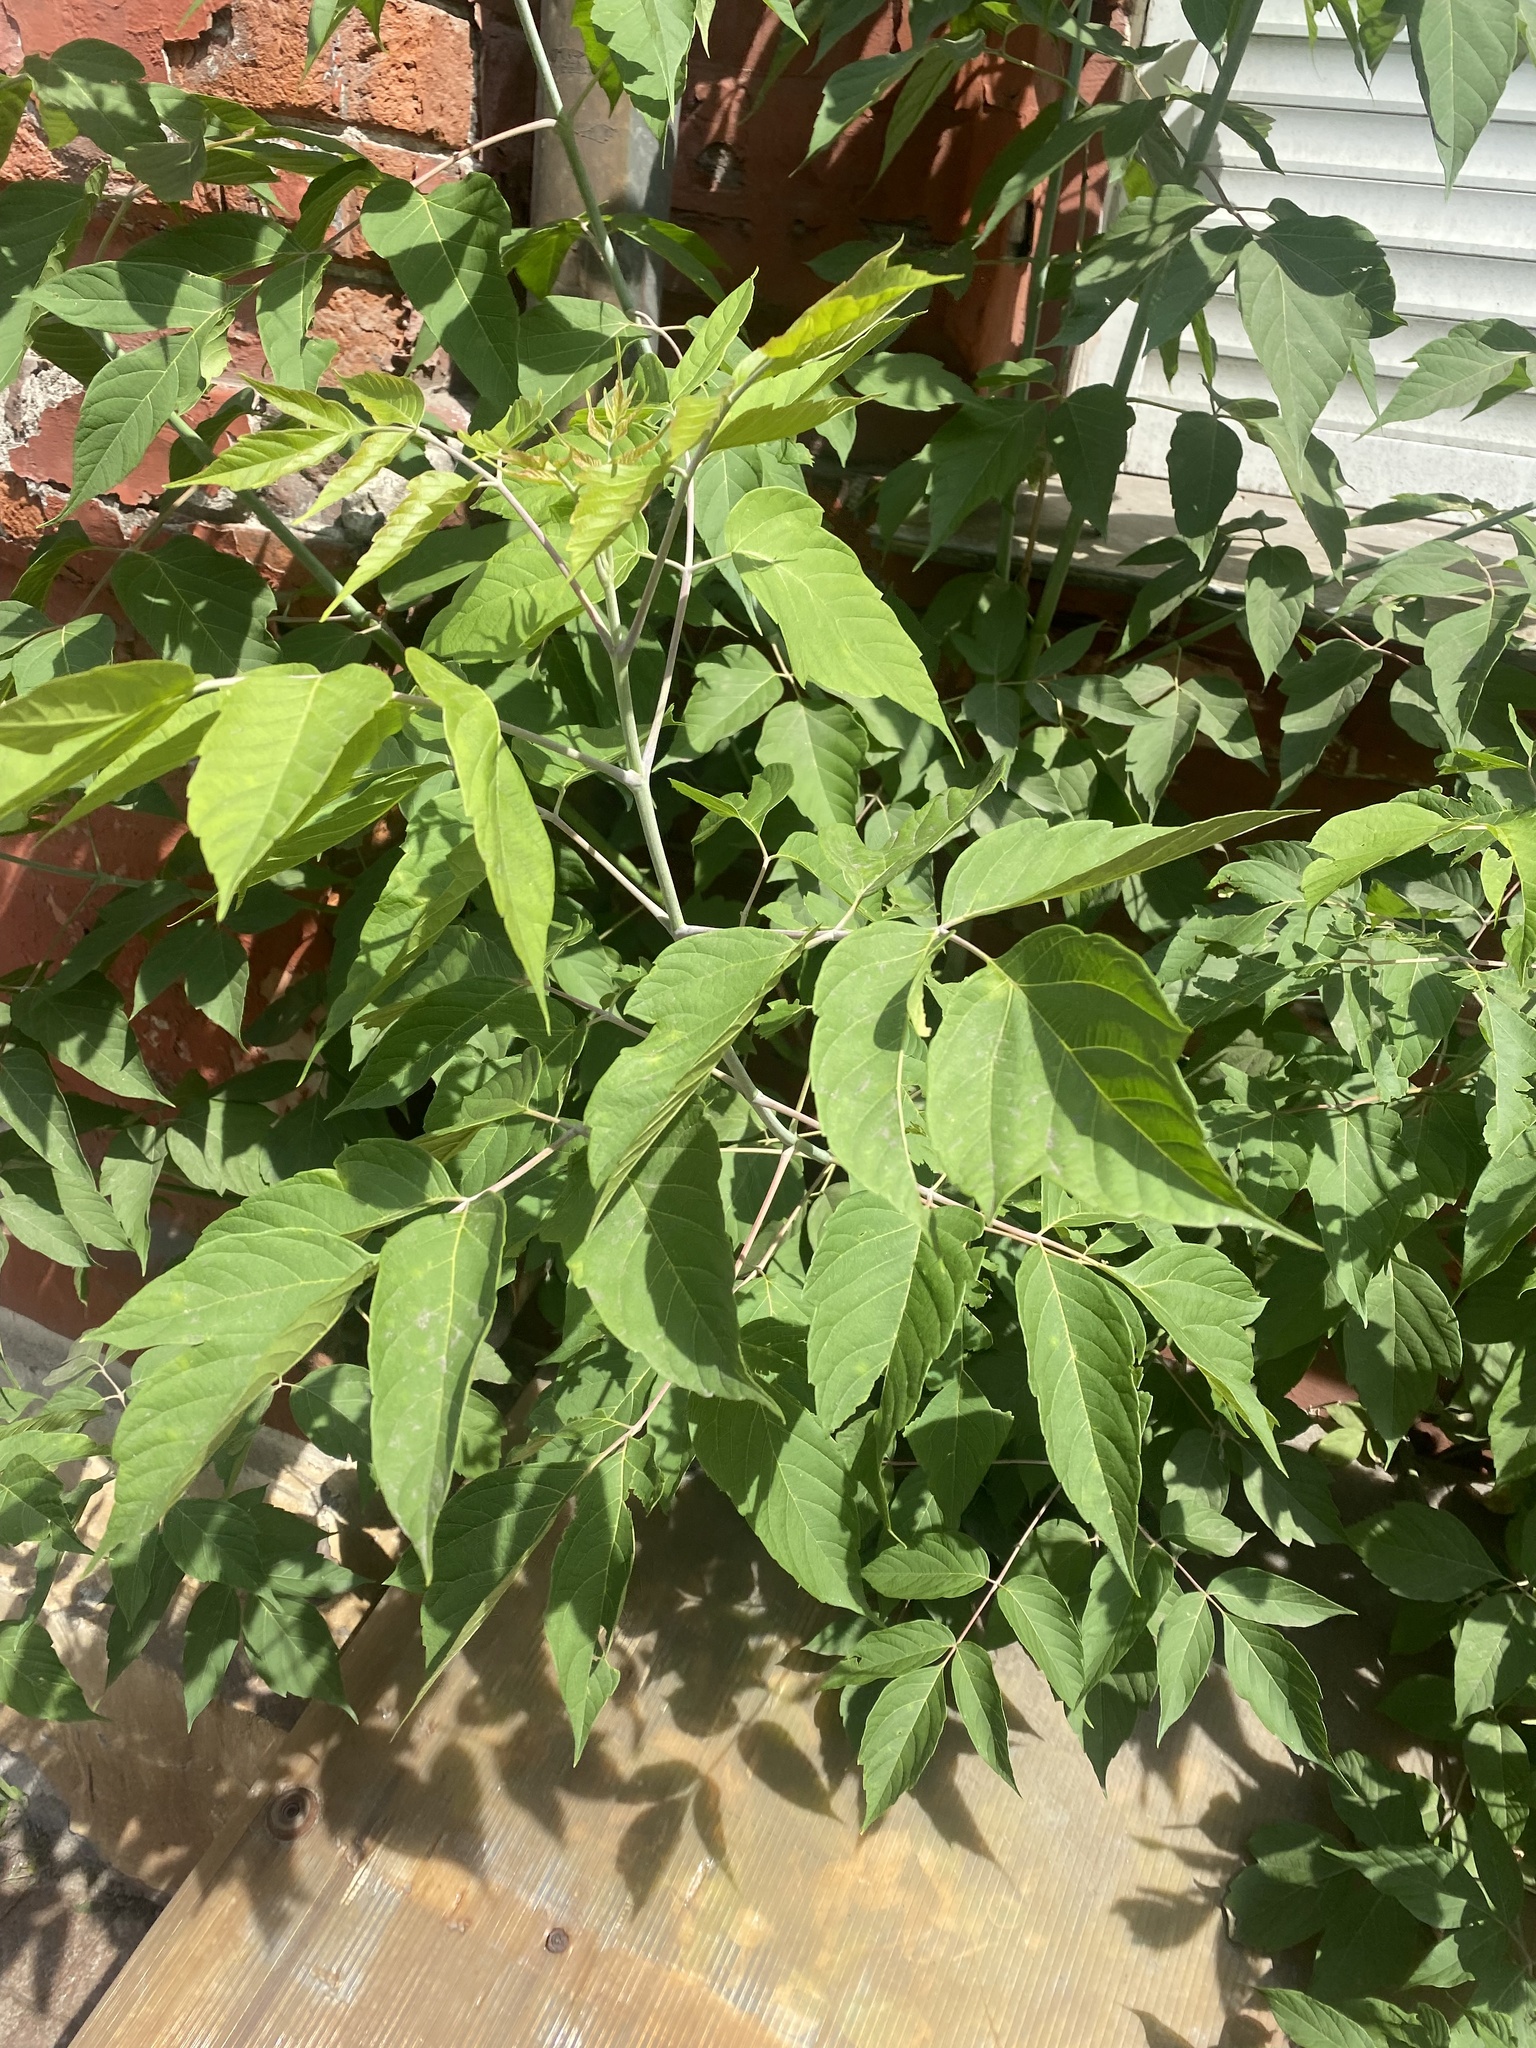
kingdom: Plantae
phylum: Tracheophyta
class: Magnoliopsida
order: Sapindales
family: Sapindaceae
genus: Acer
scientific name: Acer negundo
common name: Ashleaf maple
